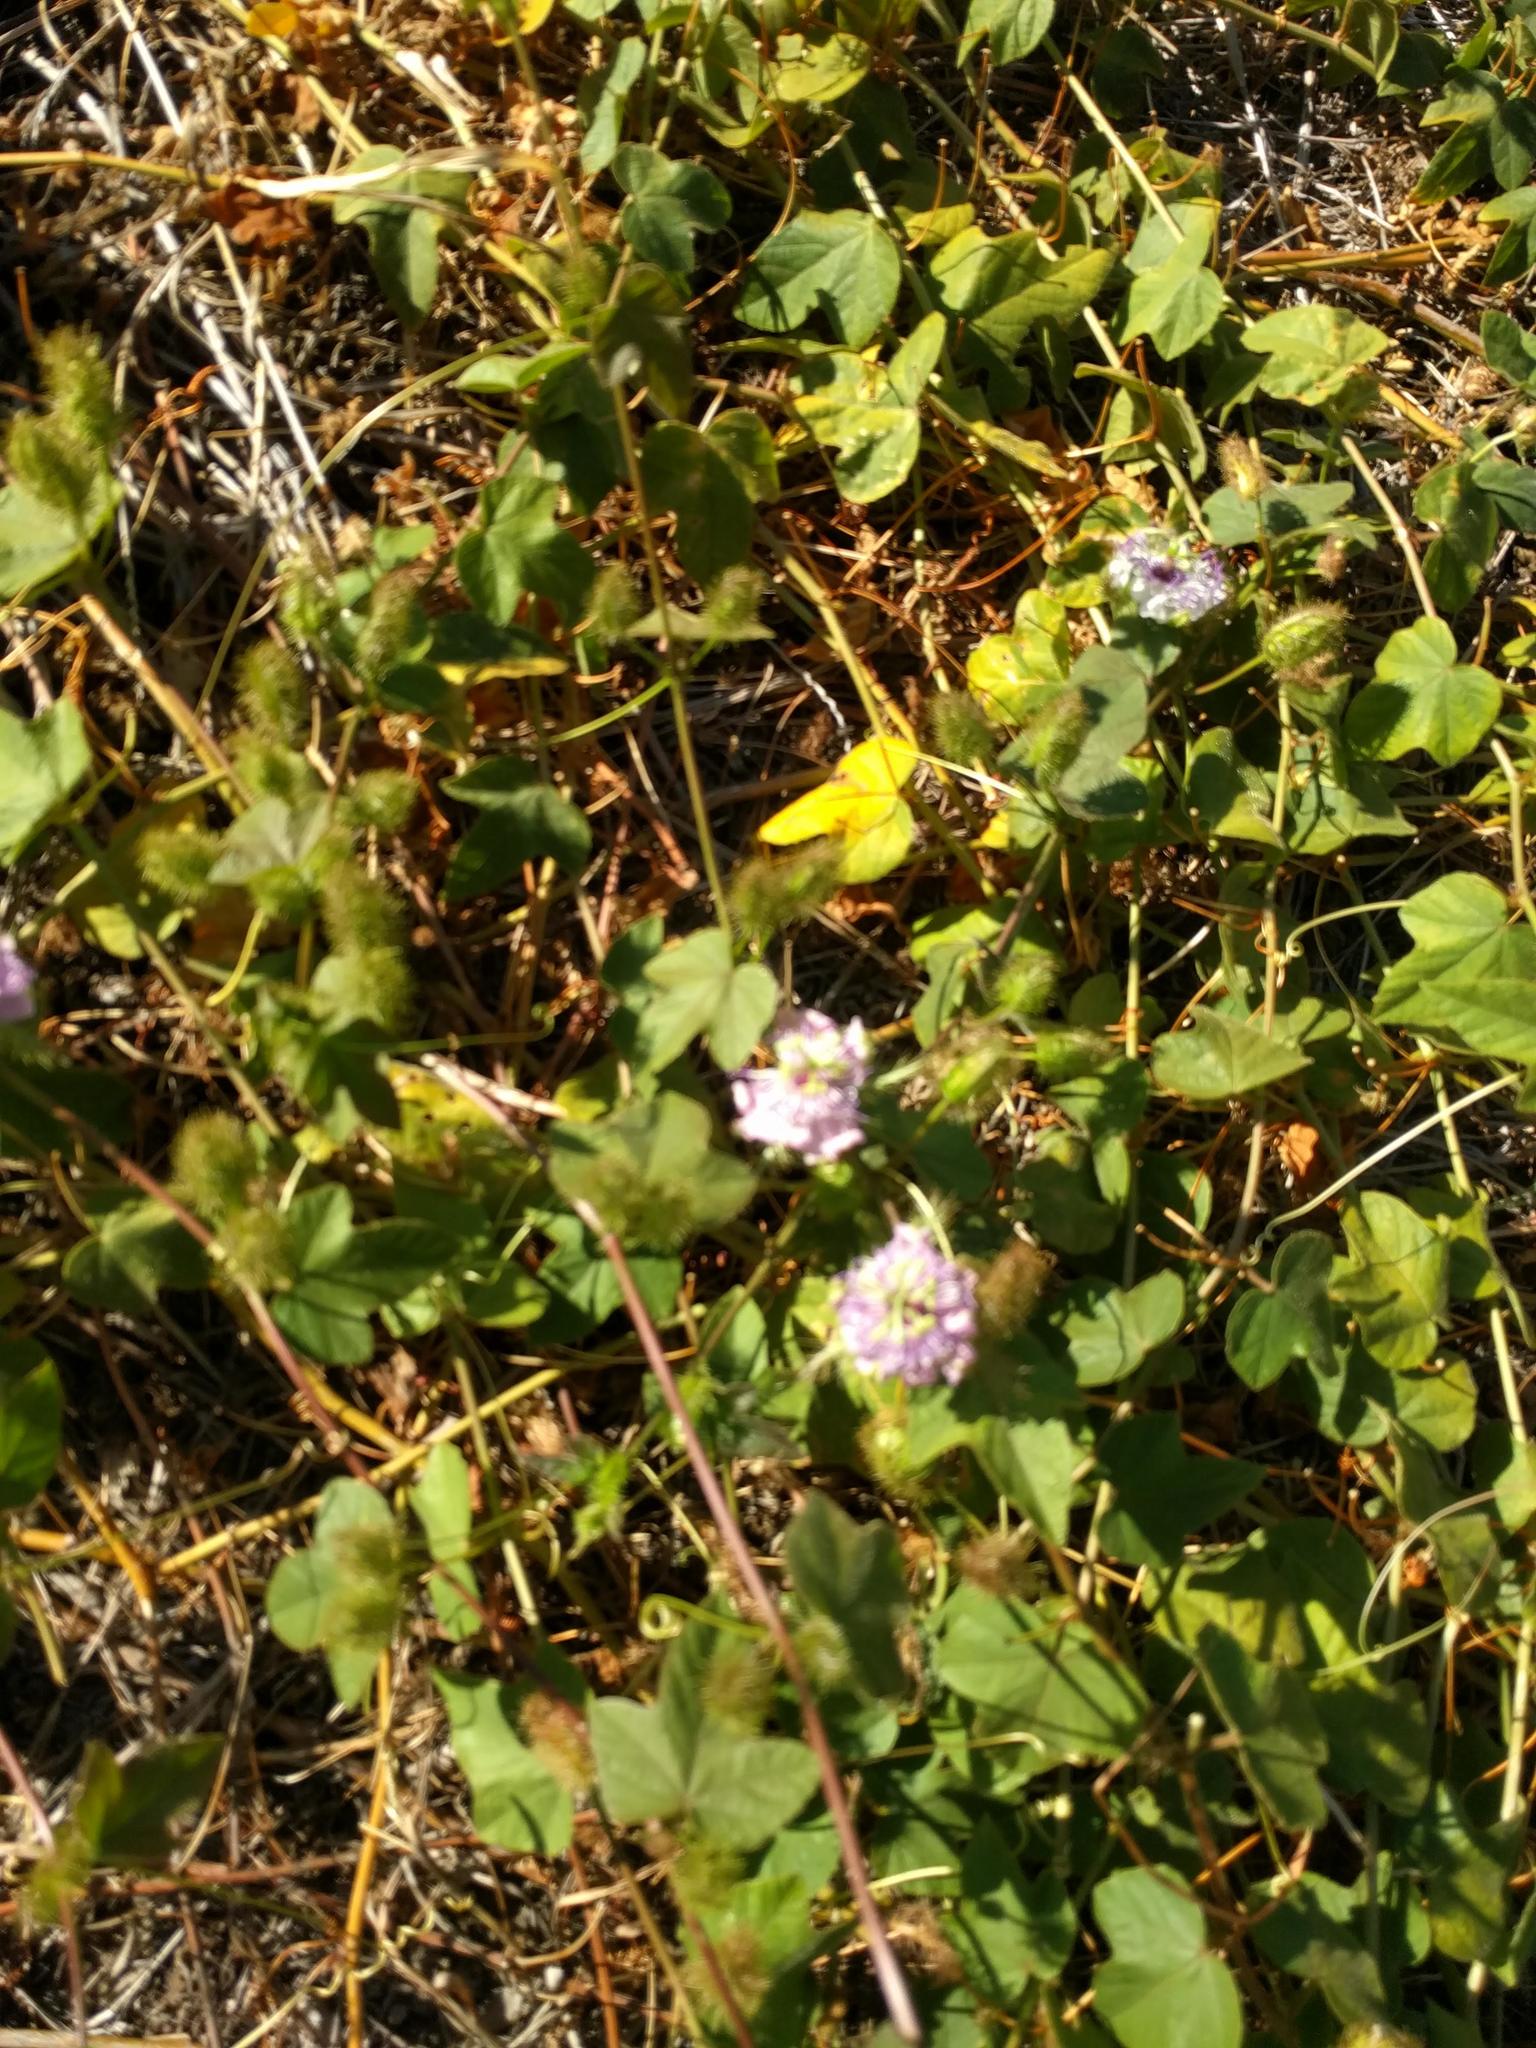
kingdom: Plantae
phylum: Tracheophyta
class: Magnoliopsida
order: Malpighiales
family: Passifloraceae
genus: Passiflora
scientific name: Passiflora foetida
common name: Fetid passionflower
